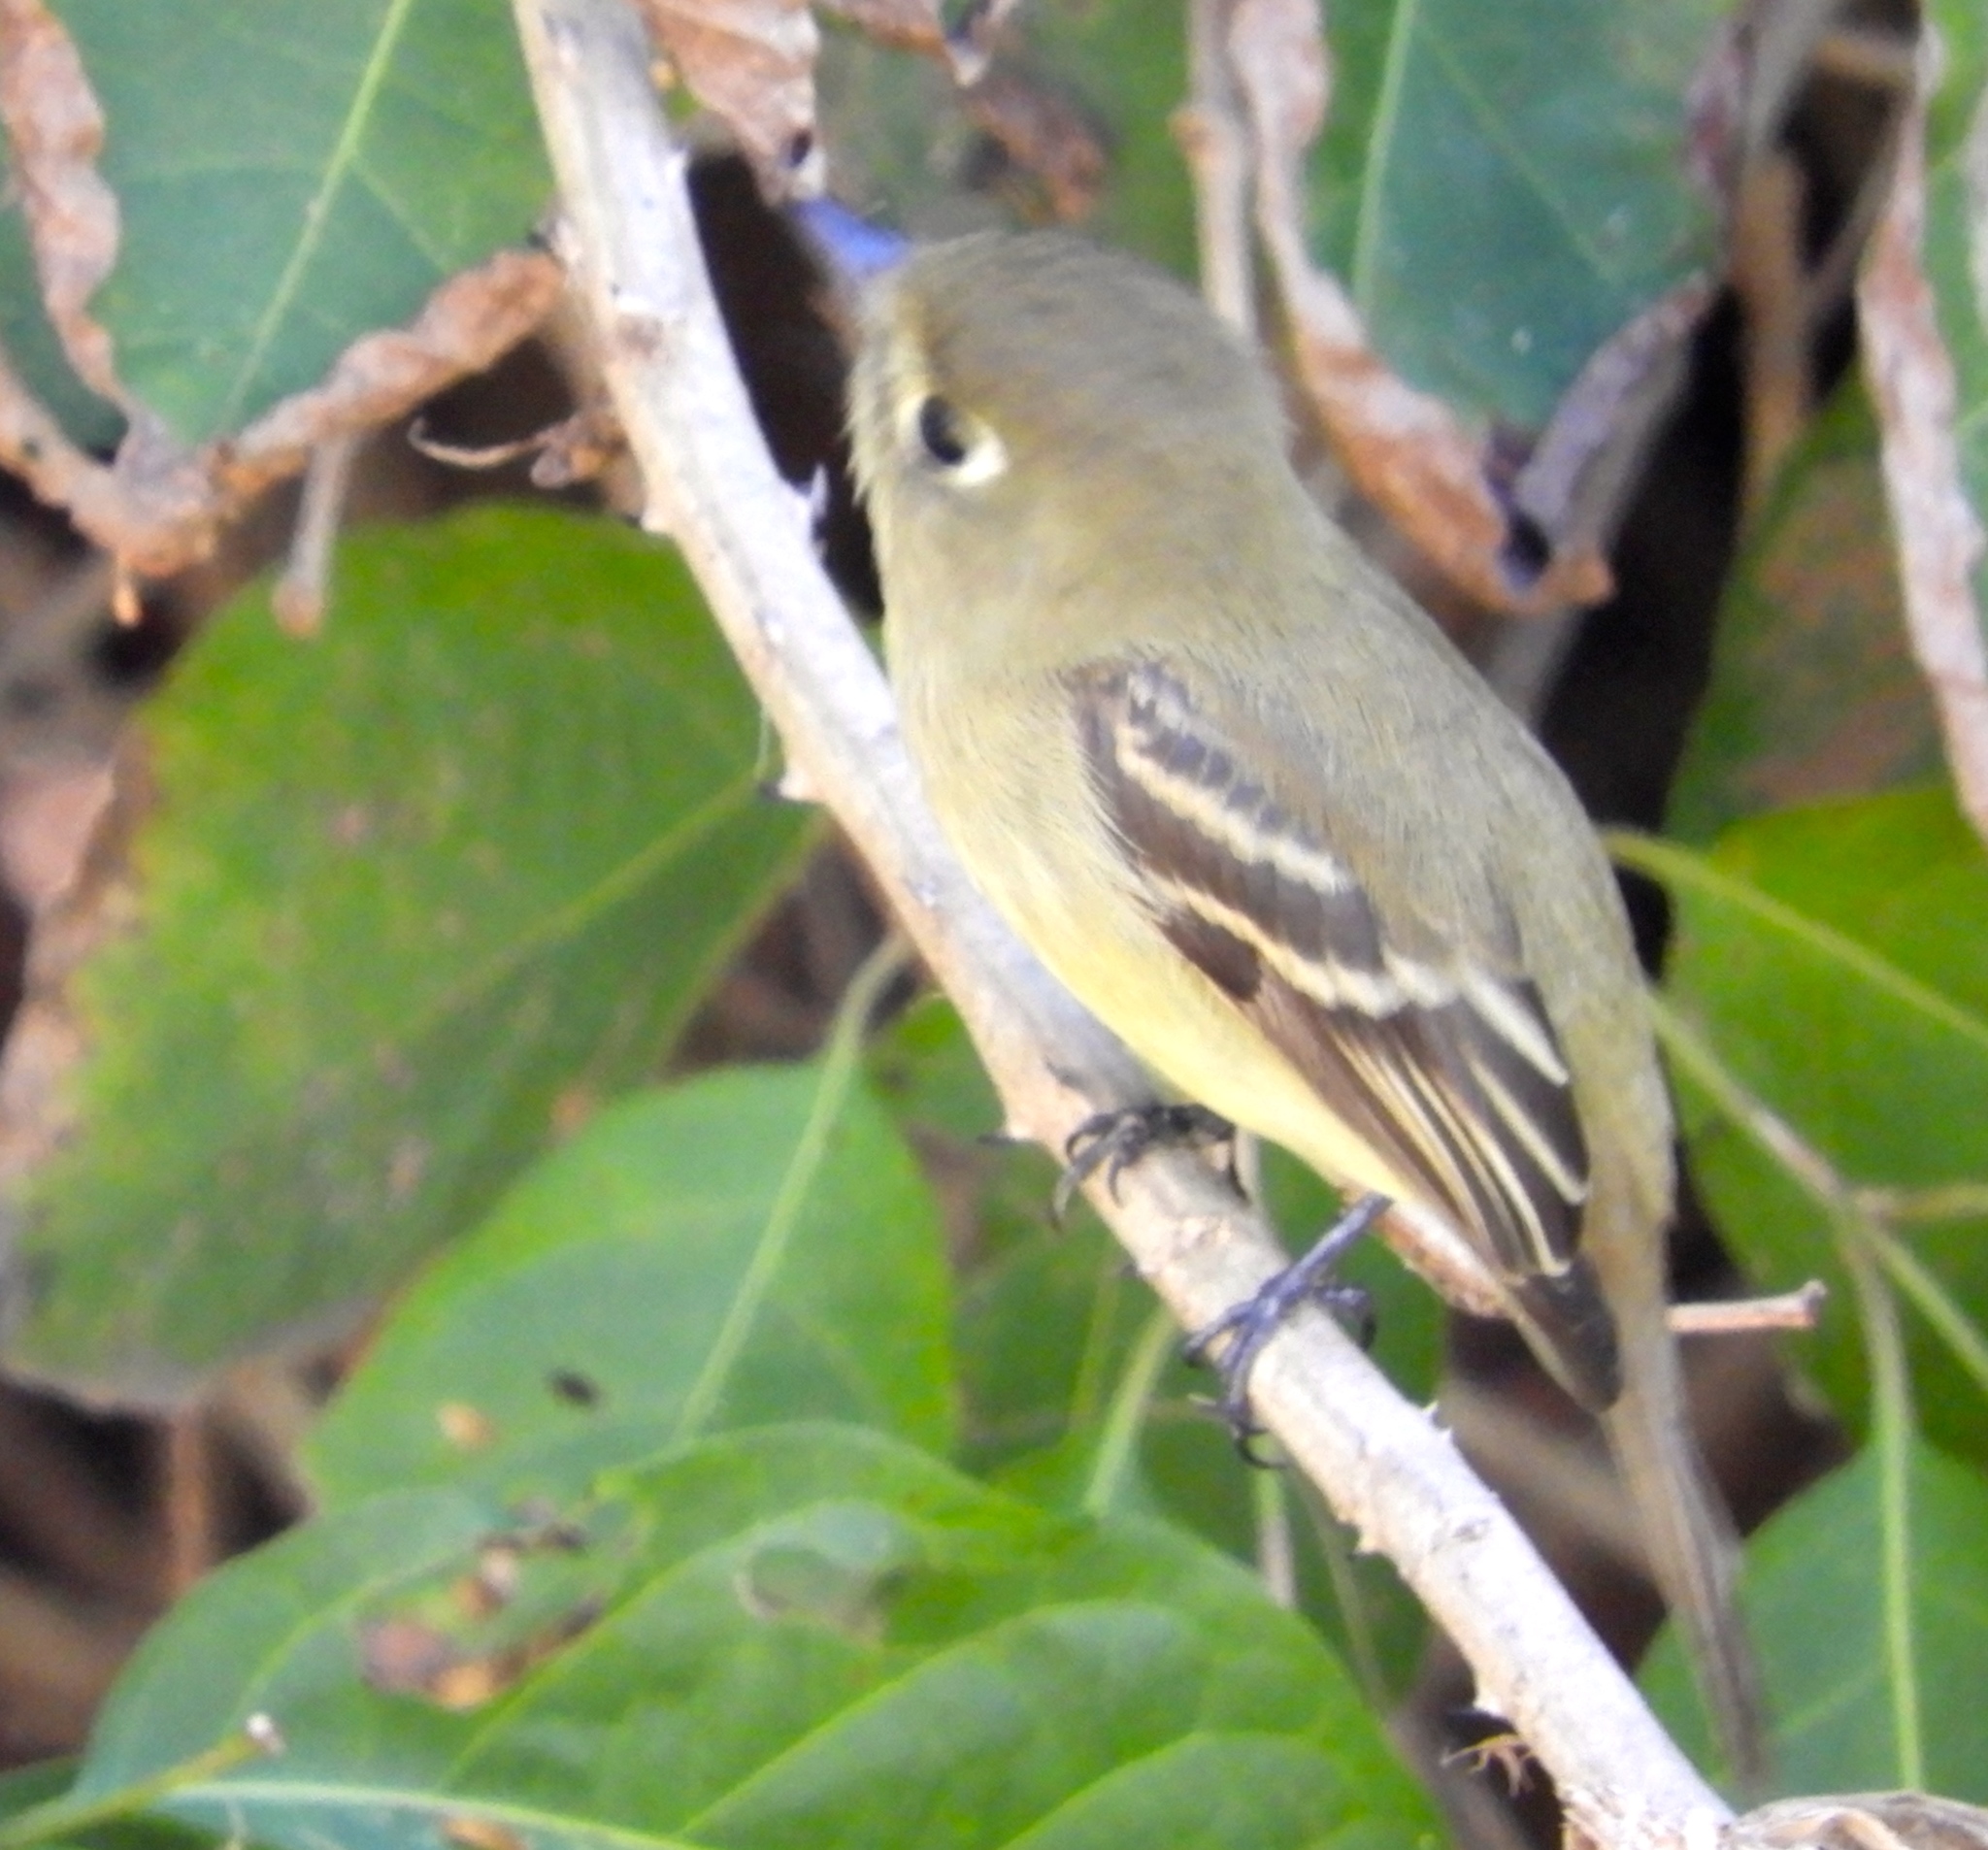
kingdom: Animalia
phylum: Chordata
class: Aves
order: Passeriformes
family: Tyrannidae
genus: Empidonax
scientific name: Empidonax difficilis
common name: Pacific-slope flycatcher
